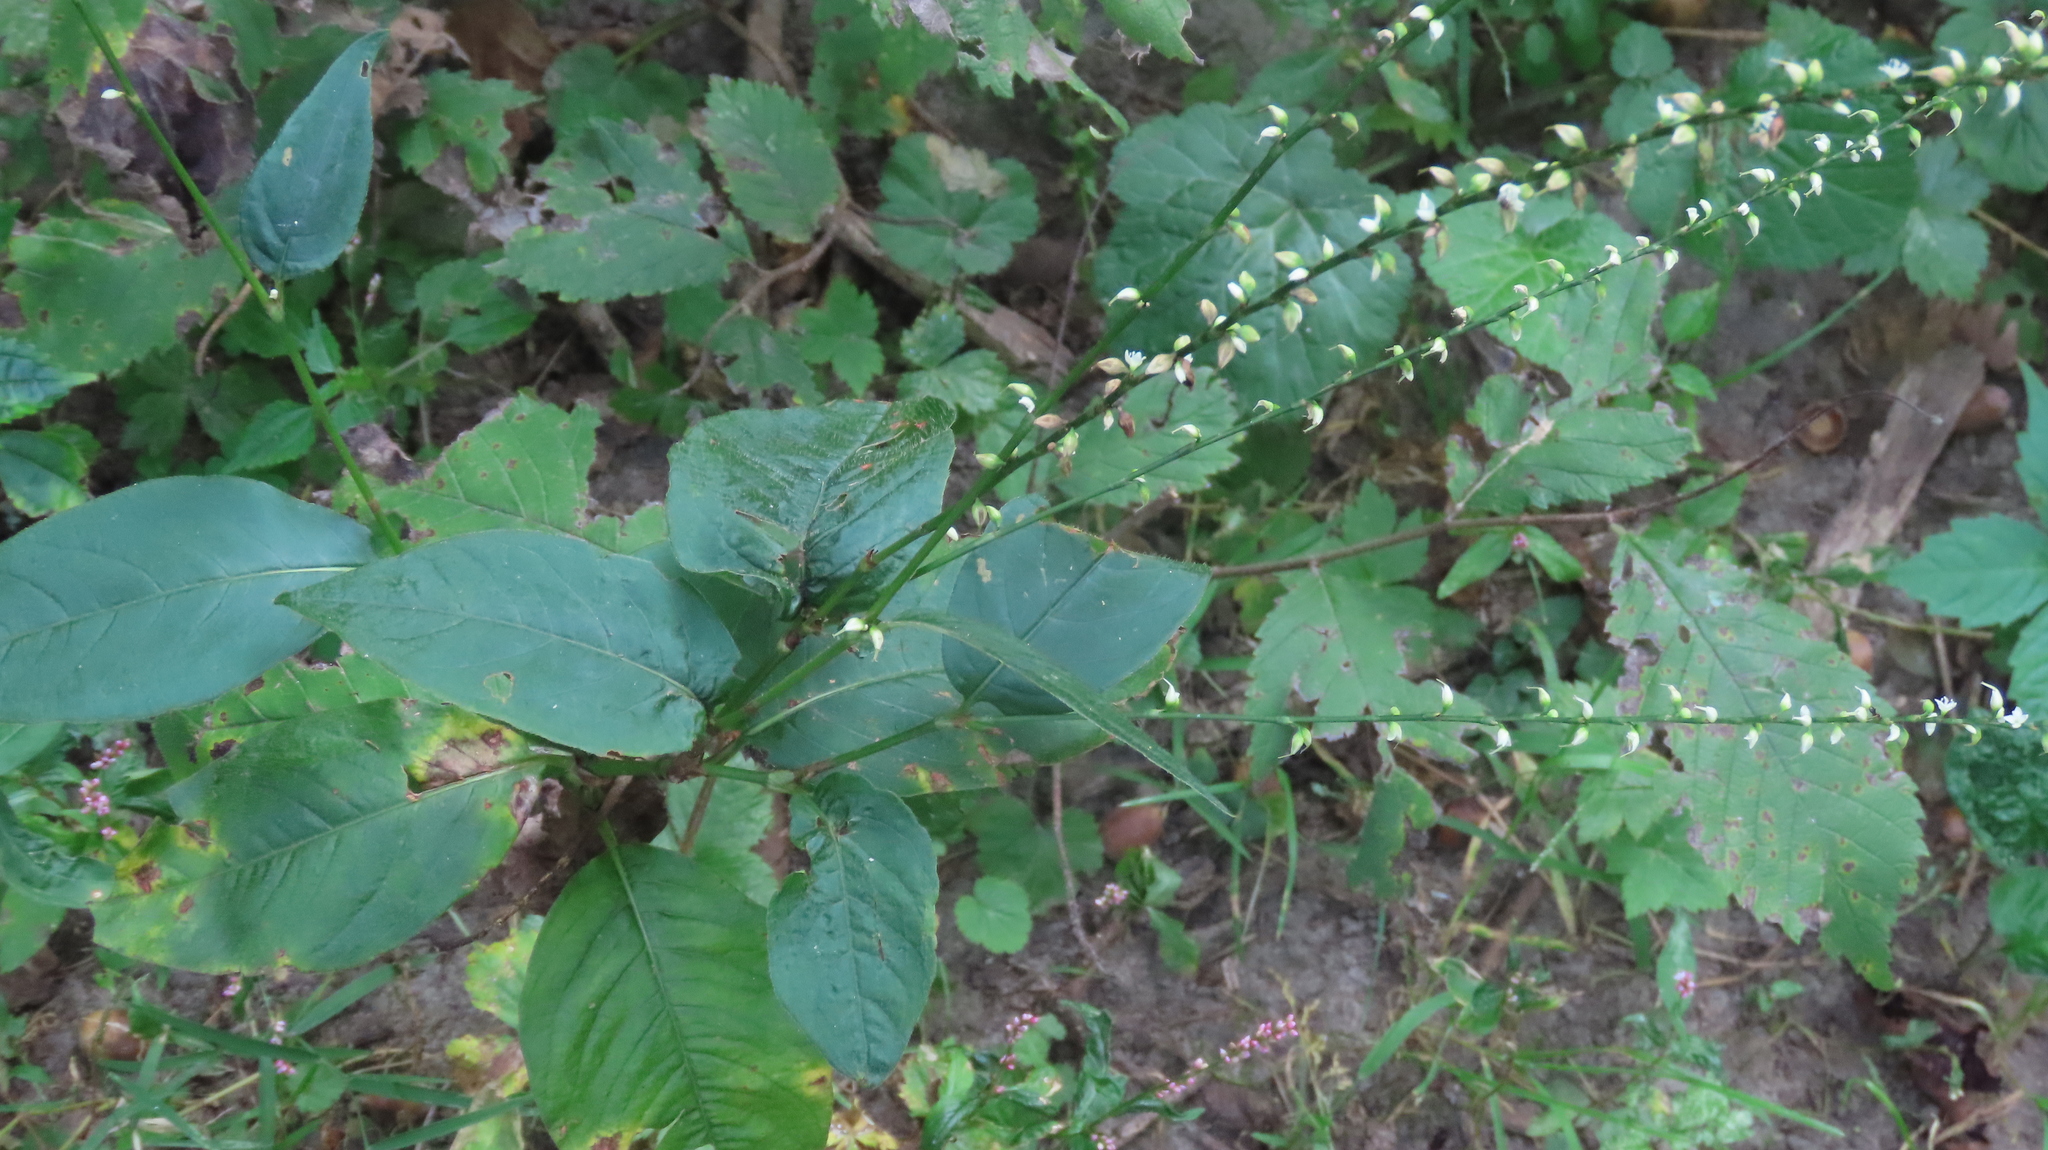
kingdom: Plantae
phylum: Tracheophyta
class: Magnoliopsida
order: Caryophyllales
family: Polygonaceae
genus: Persicaria
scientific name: Persicaria virginiana
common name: Jumpseed
